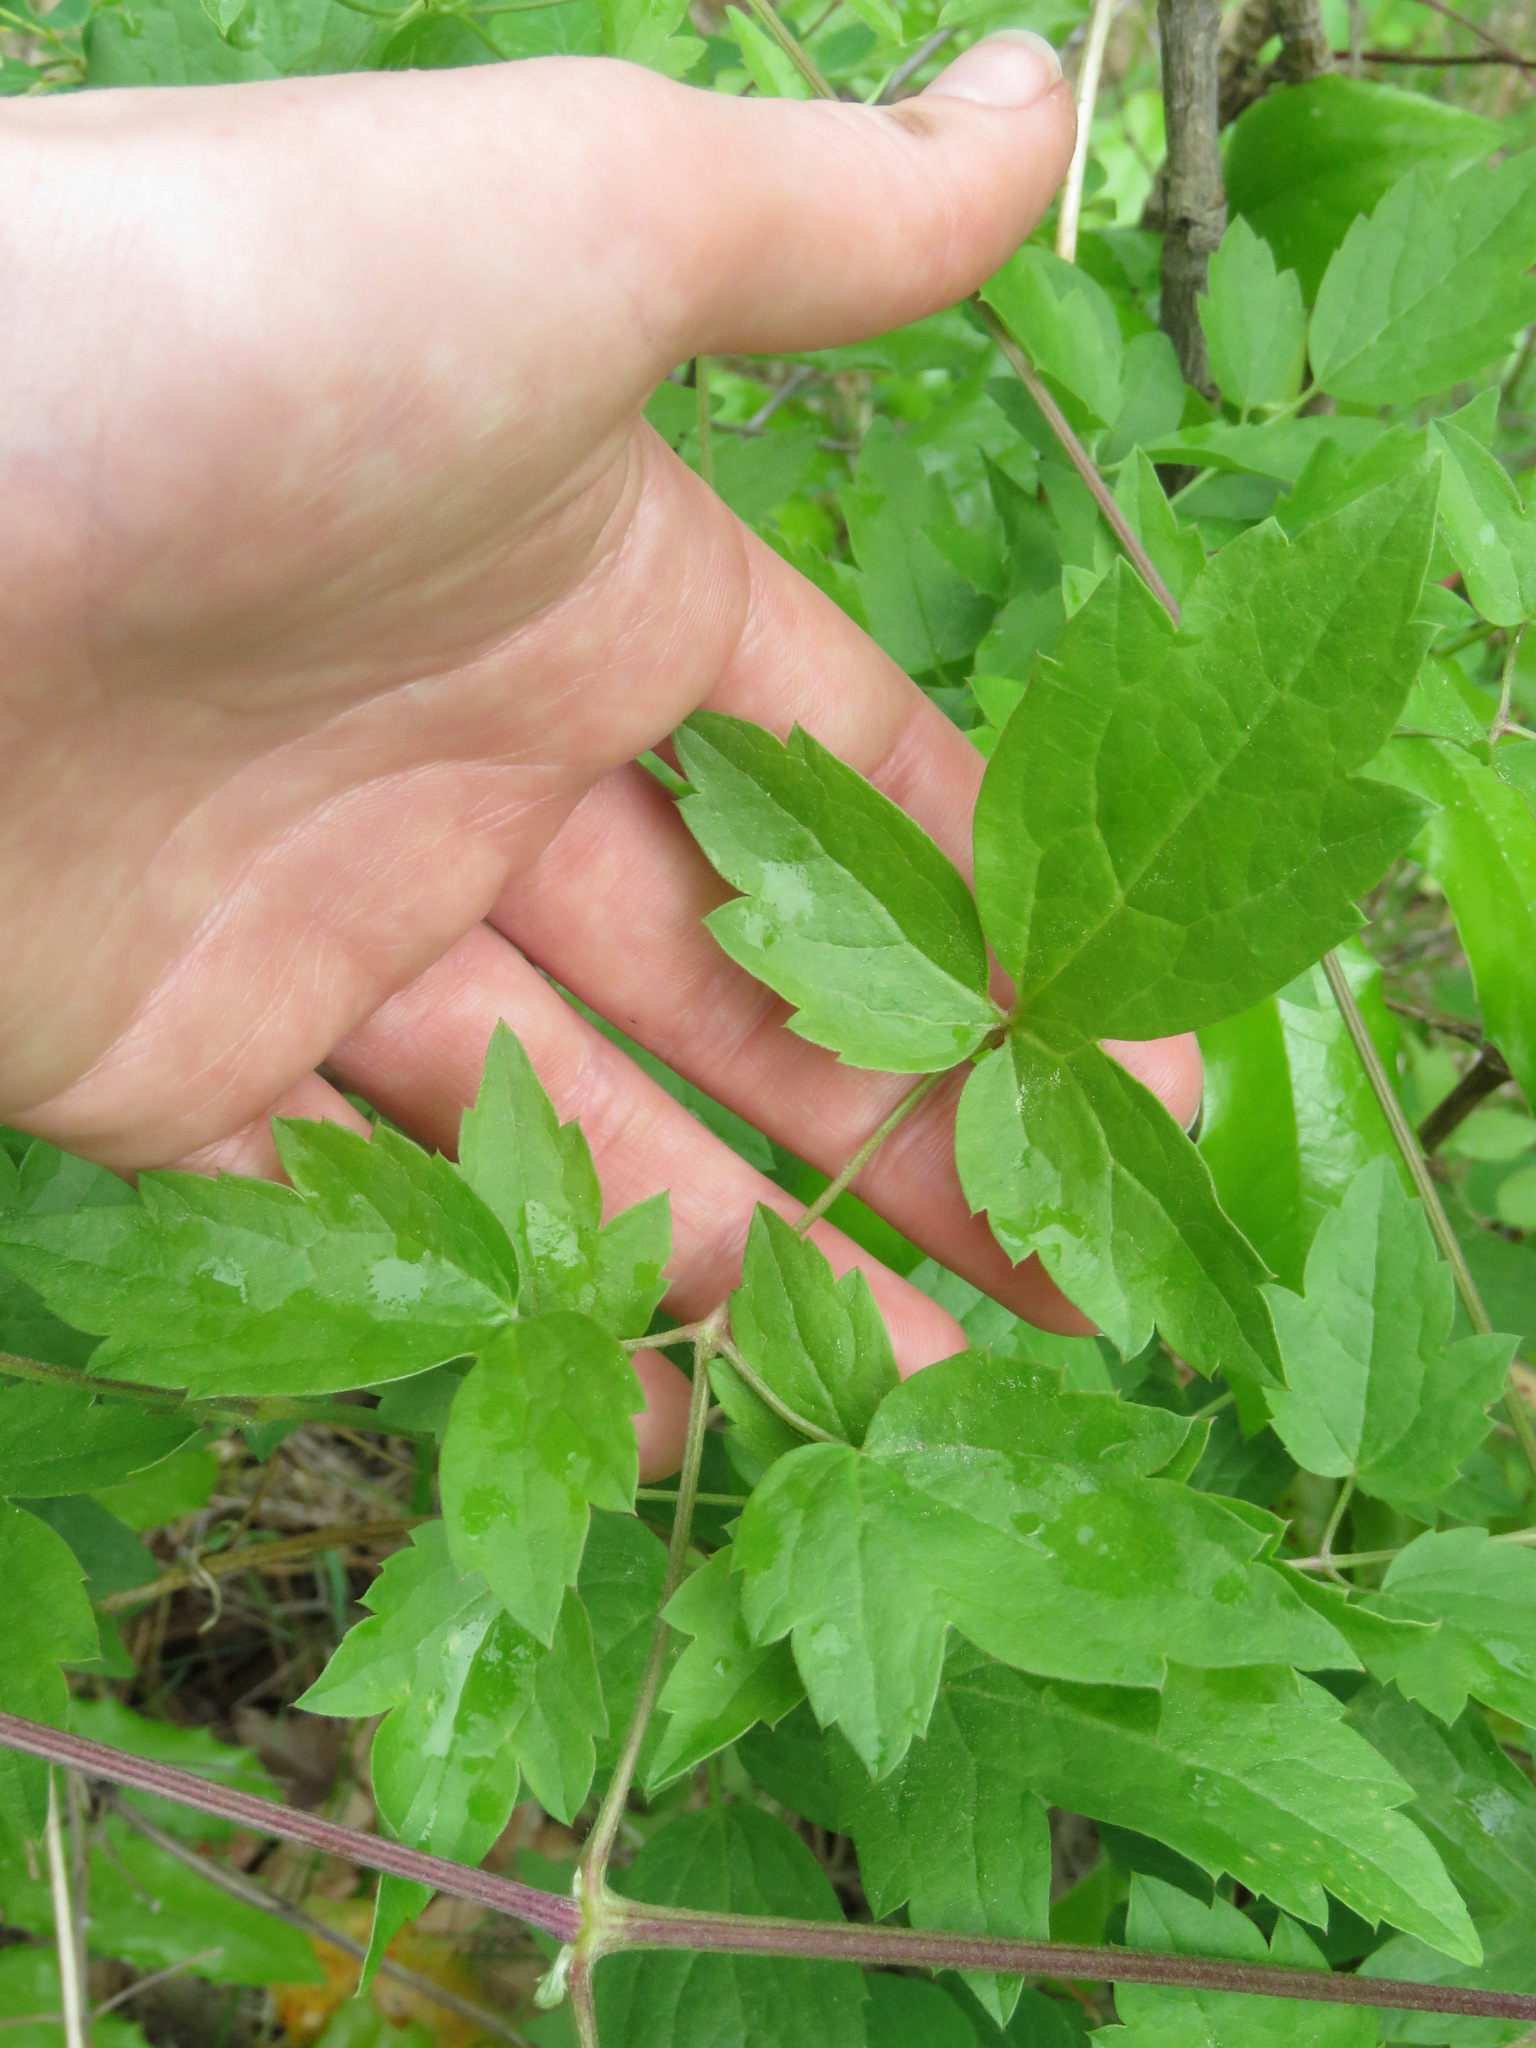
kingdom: Plantae
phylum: Tracheophyta
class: Magnoliopsida
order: Ranunculales
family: Ranunculaceae
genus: Clematis
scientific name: Clematis ligusticifolia
